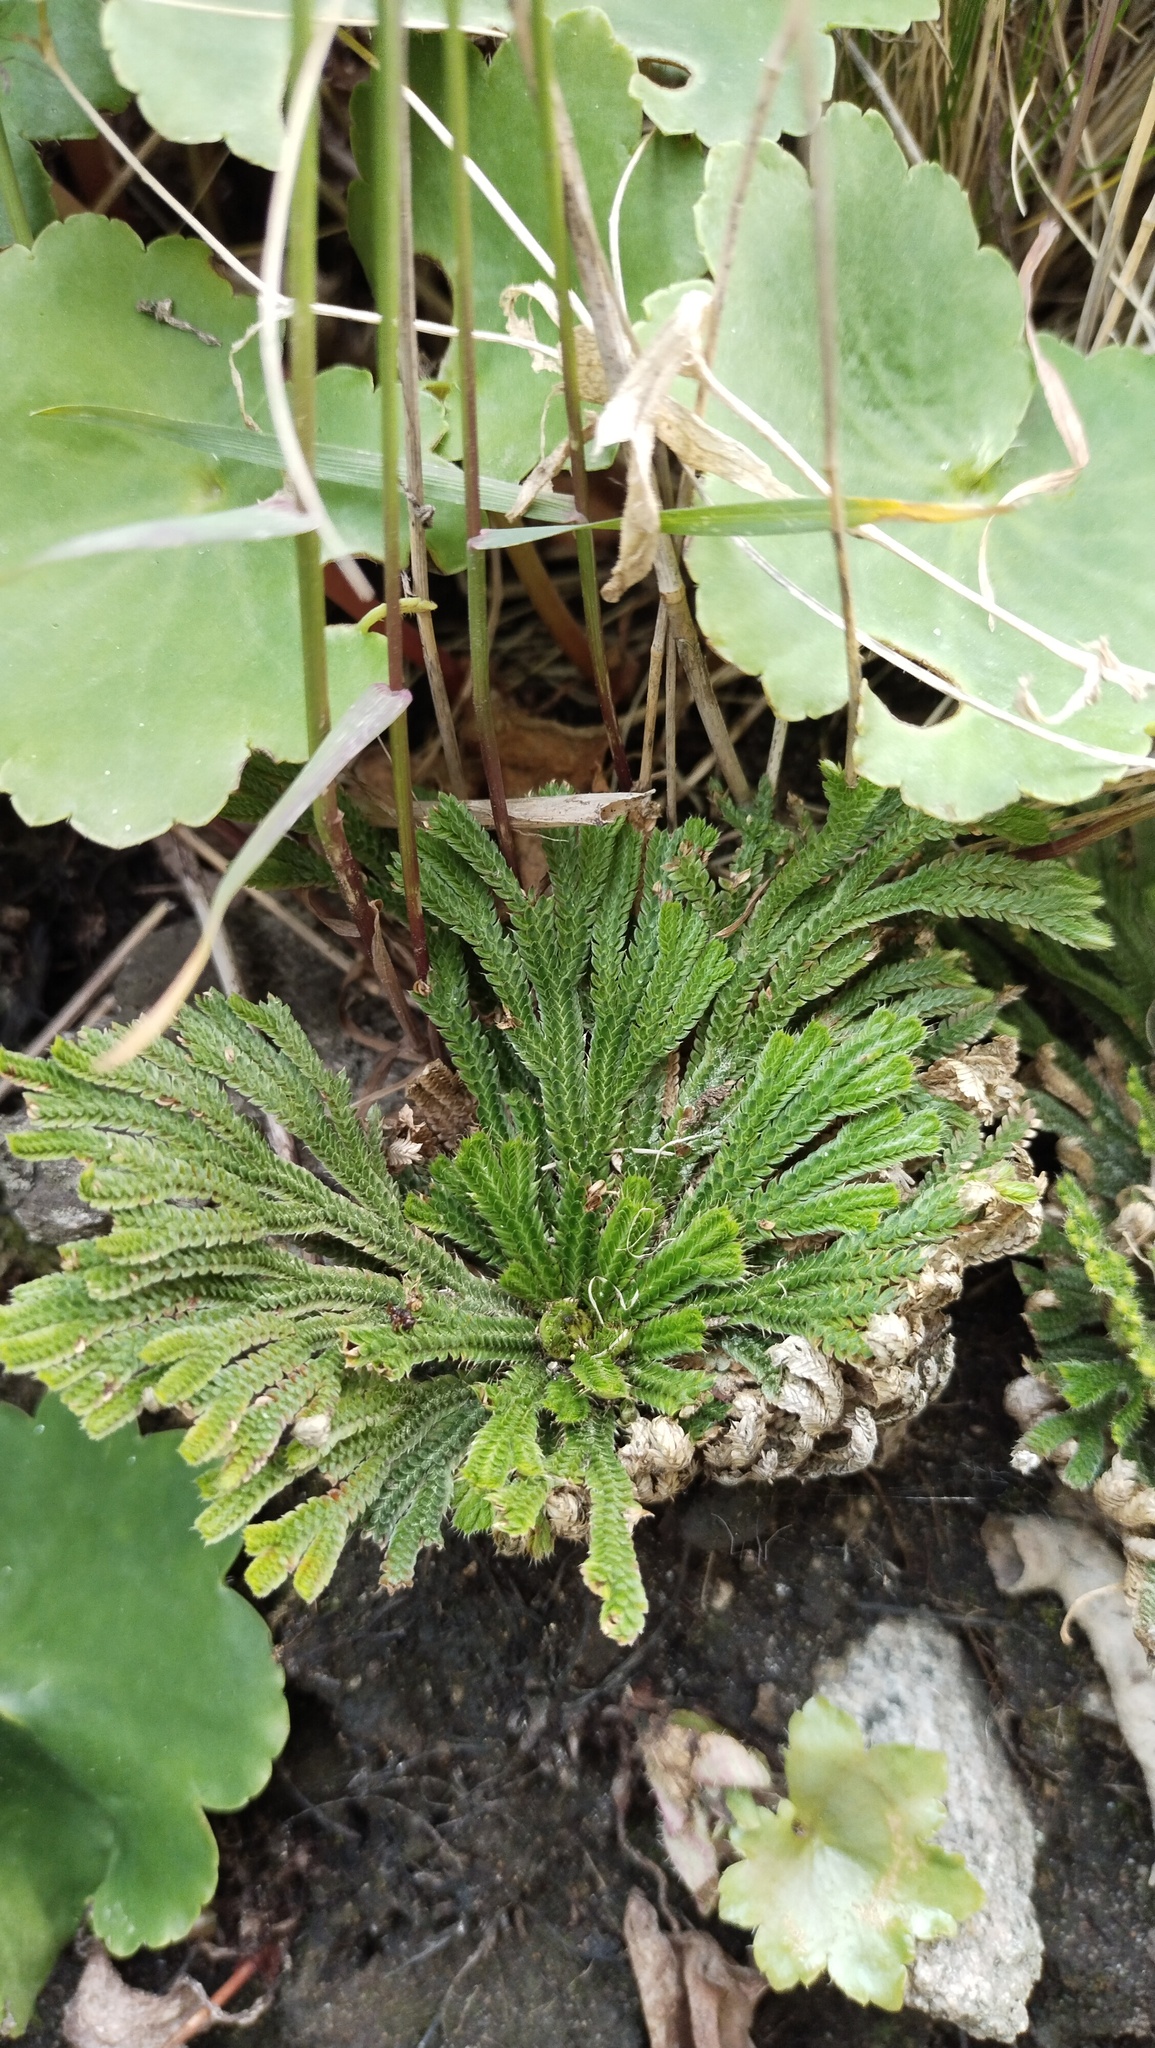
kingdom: Plantae
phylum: Tracheophyta
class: Lycopodiopsida
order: Selaginellales
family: Selaginellaceae
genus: Selaginella
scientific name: Selaginella tamariscina
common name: Little-club-moss
